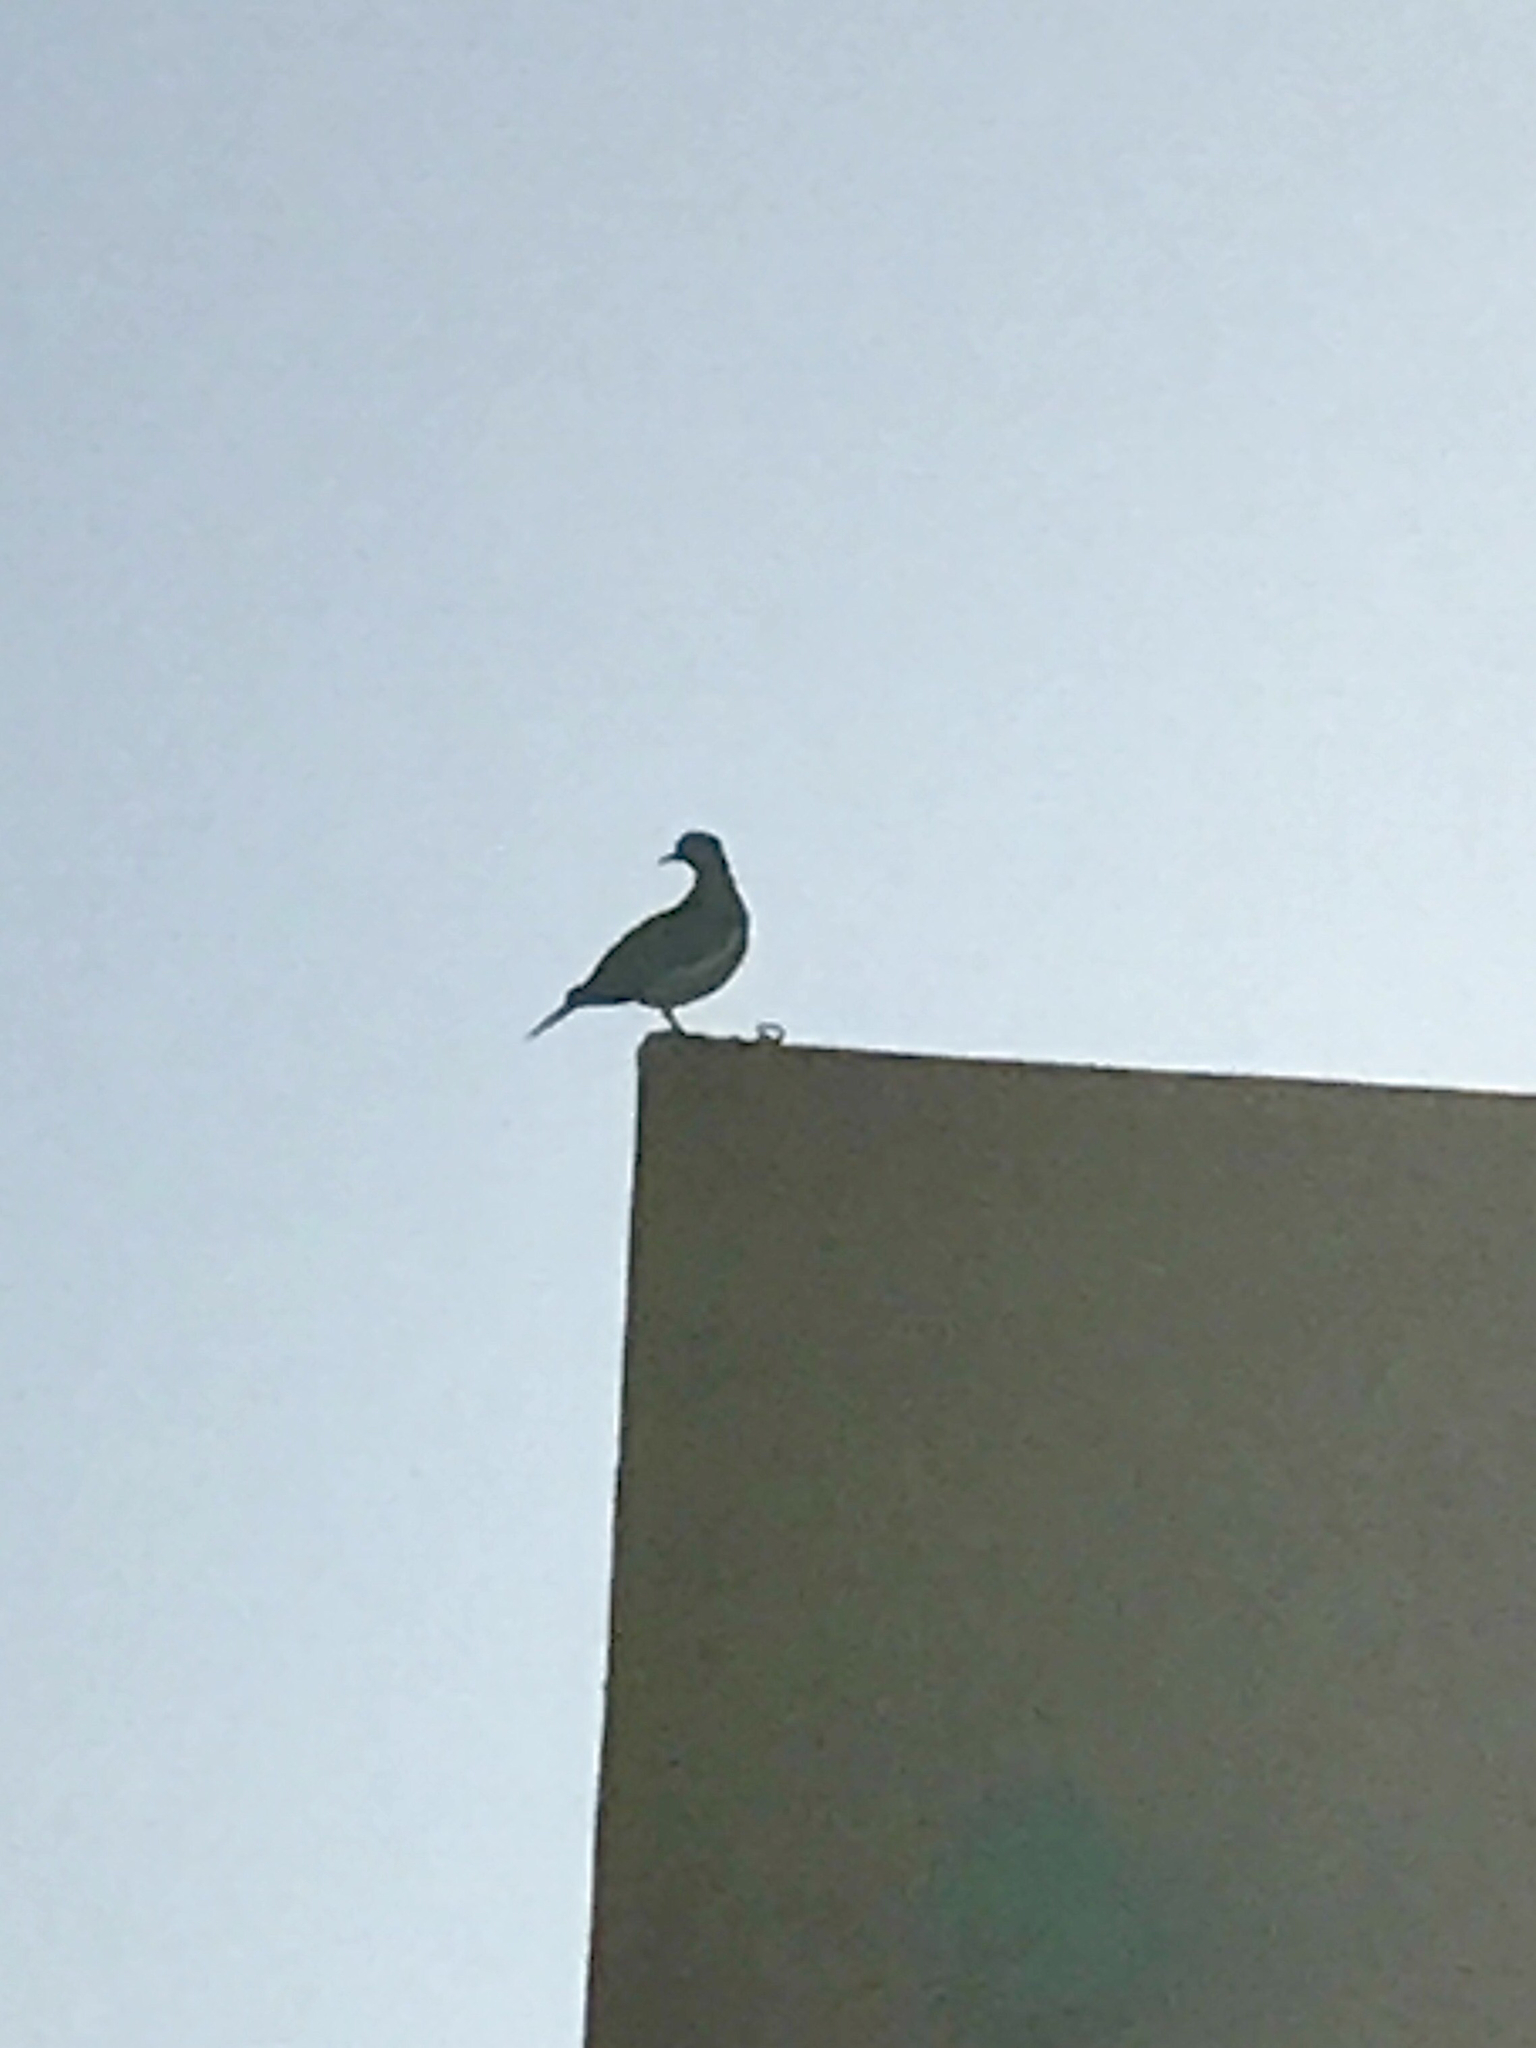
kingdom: Animalia
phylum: Chordata
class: Aves
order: Columbiformes
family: Columbidae
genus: Zenaida
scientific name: Zenaida asiatica
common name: White-winged dove
